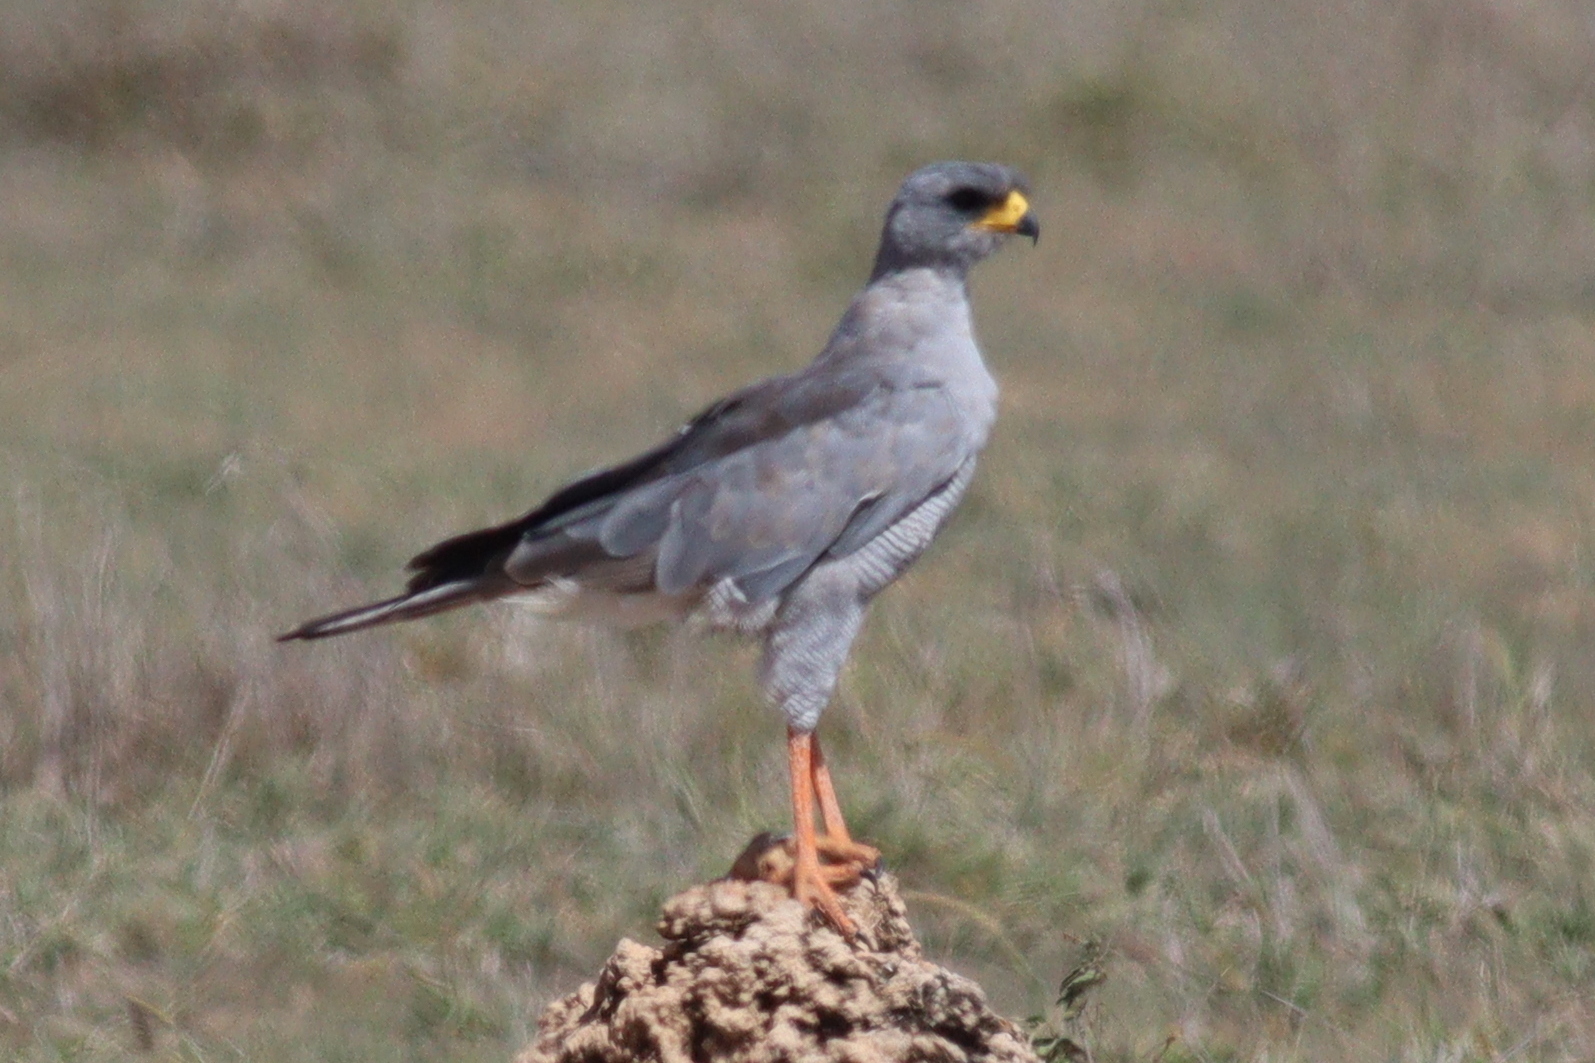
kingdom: Animalia
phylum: Chordata
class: Aves
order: Accipitriformes
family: Accipitridae
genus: Melierax
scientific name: Melierax poliopterus
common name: Eastern chanting goshawk
